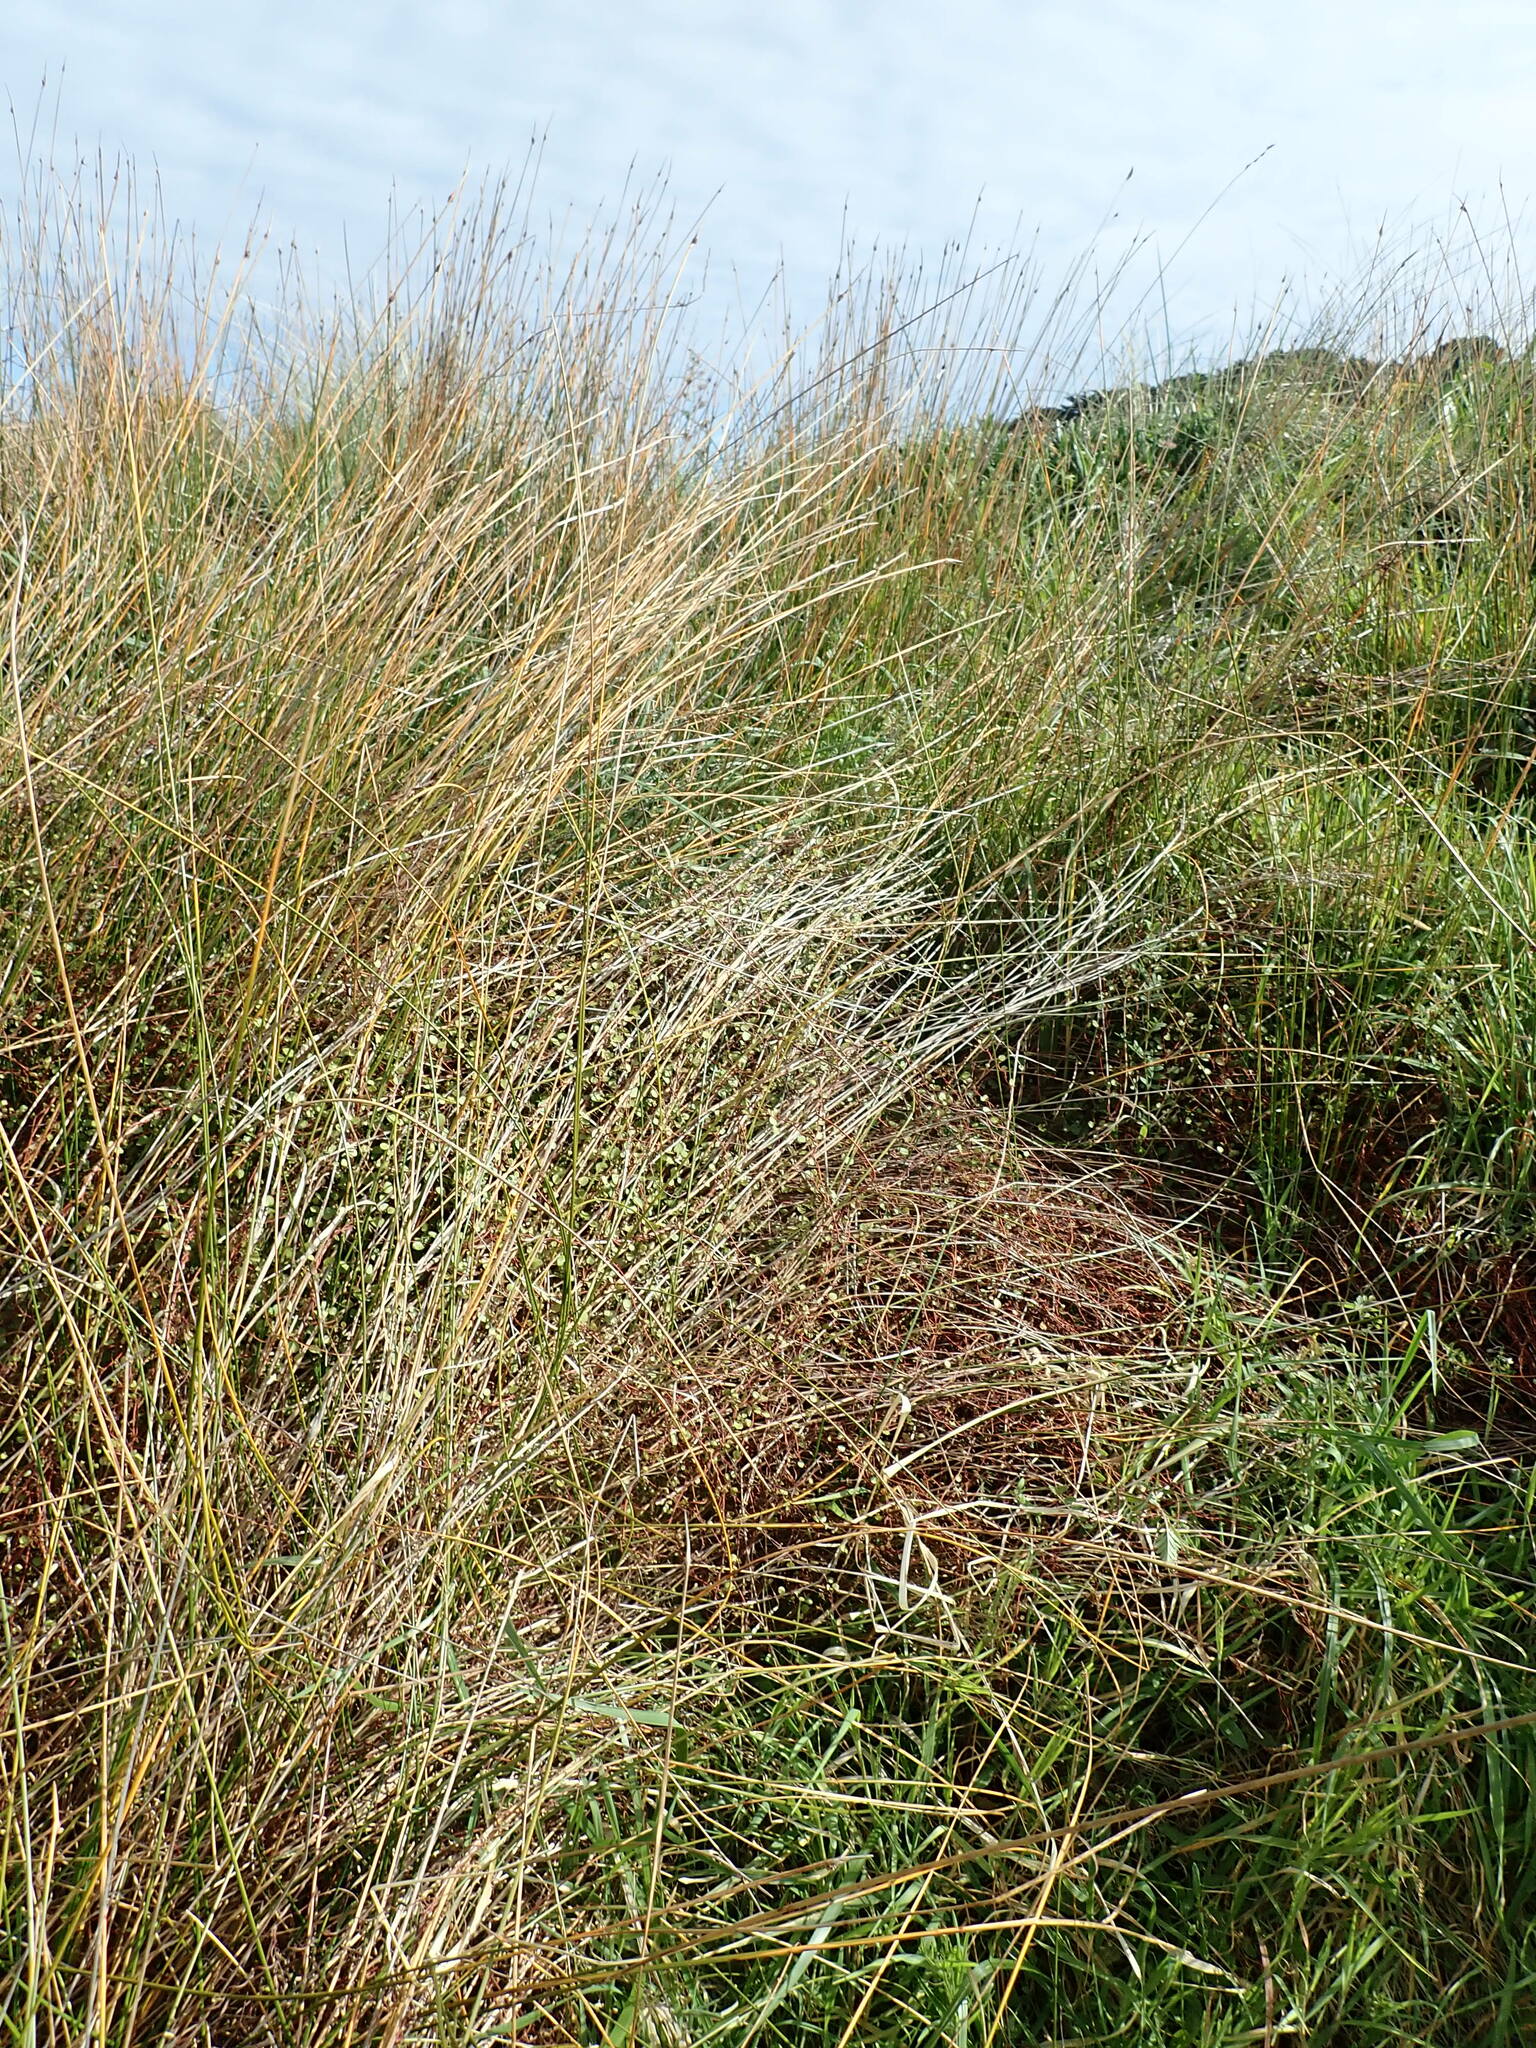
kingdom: Plantae
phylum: Tracheophyta
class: Magnoliopsida
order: Caryophyllales
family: Polygonaceae
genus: Muehlenbeckia
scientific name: Muehlenbeckia complexa
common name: Wireplant
